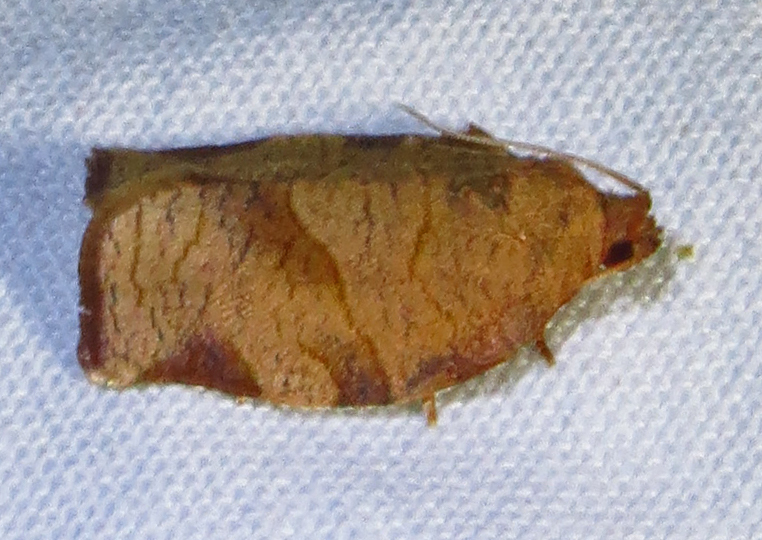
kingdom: Animalia
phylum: Arthropoda
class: Insecta
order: Lepidoptera
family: Tortricidae
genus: Choristoneura
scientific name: Choristoneura rosaceana
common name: Oblique-banded leafroller moth
